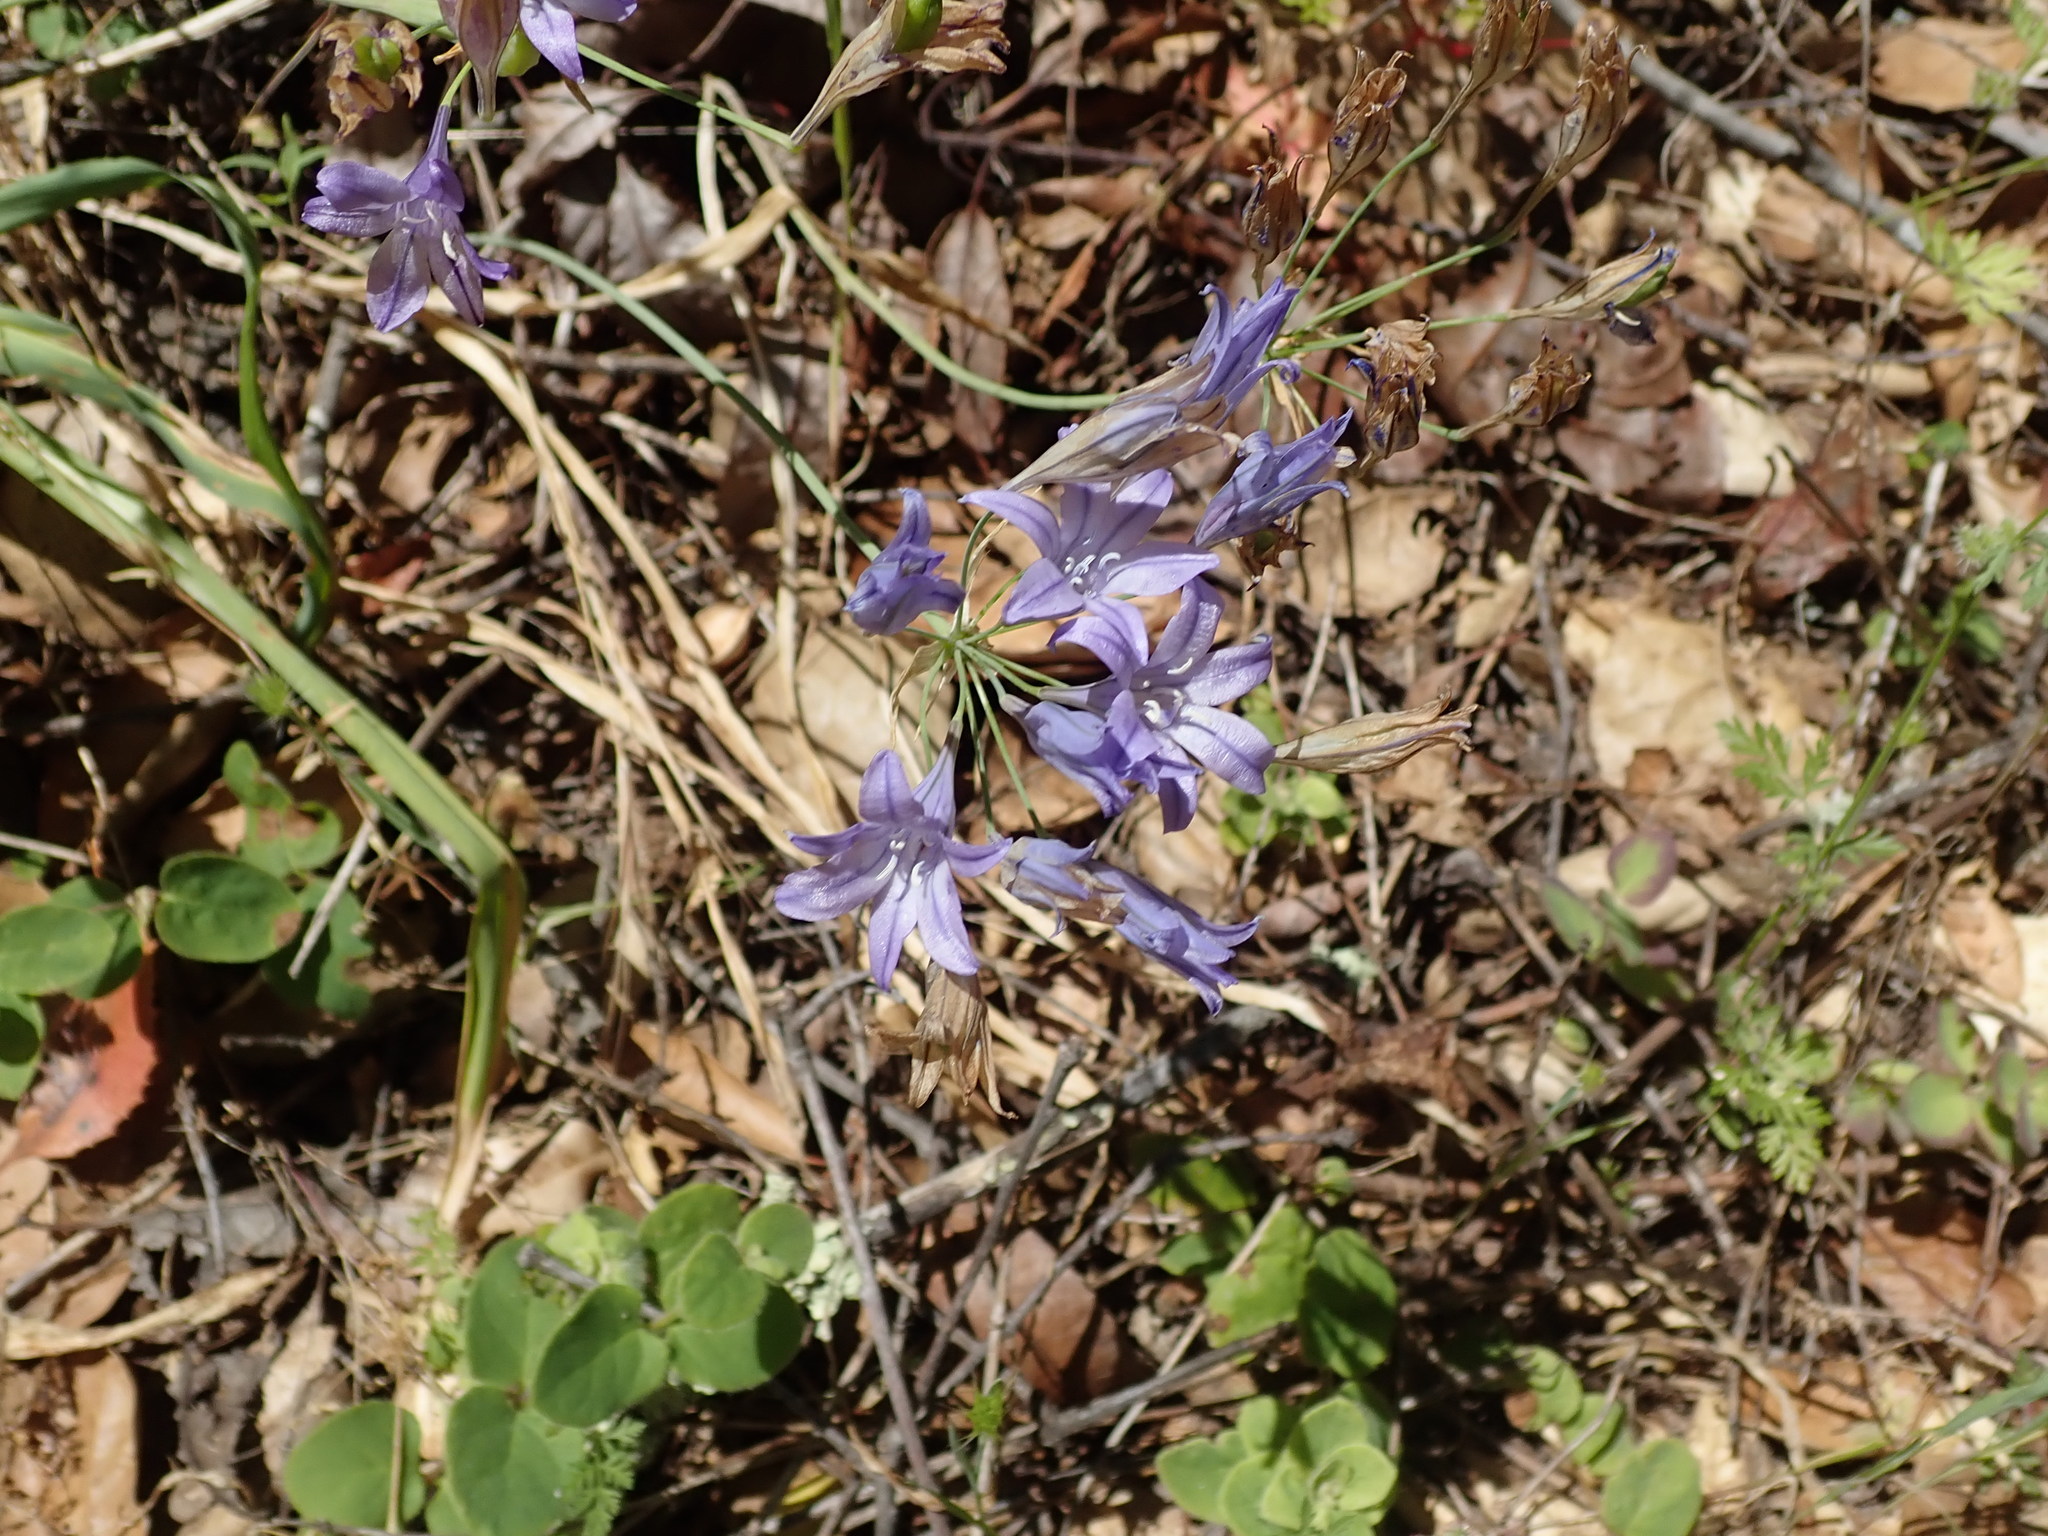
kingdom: Plantae
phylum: Tracheophyta
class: Liliopsida
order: Asparagales
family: Asparagaceae
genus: Triteleia
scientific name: Triteleia laxa
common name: Triplet-lily
